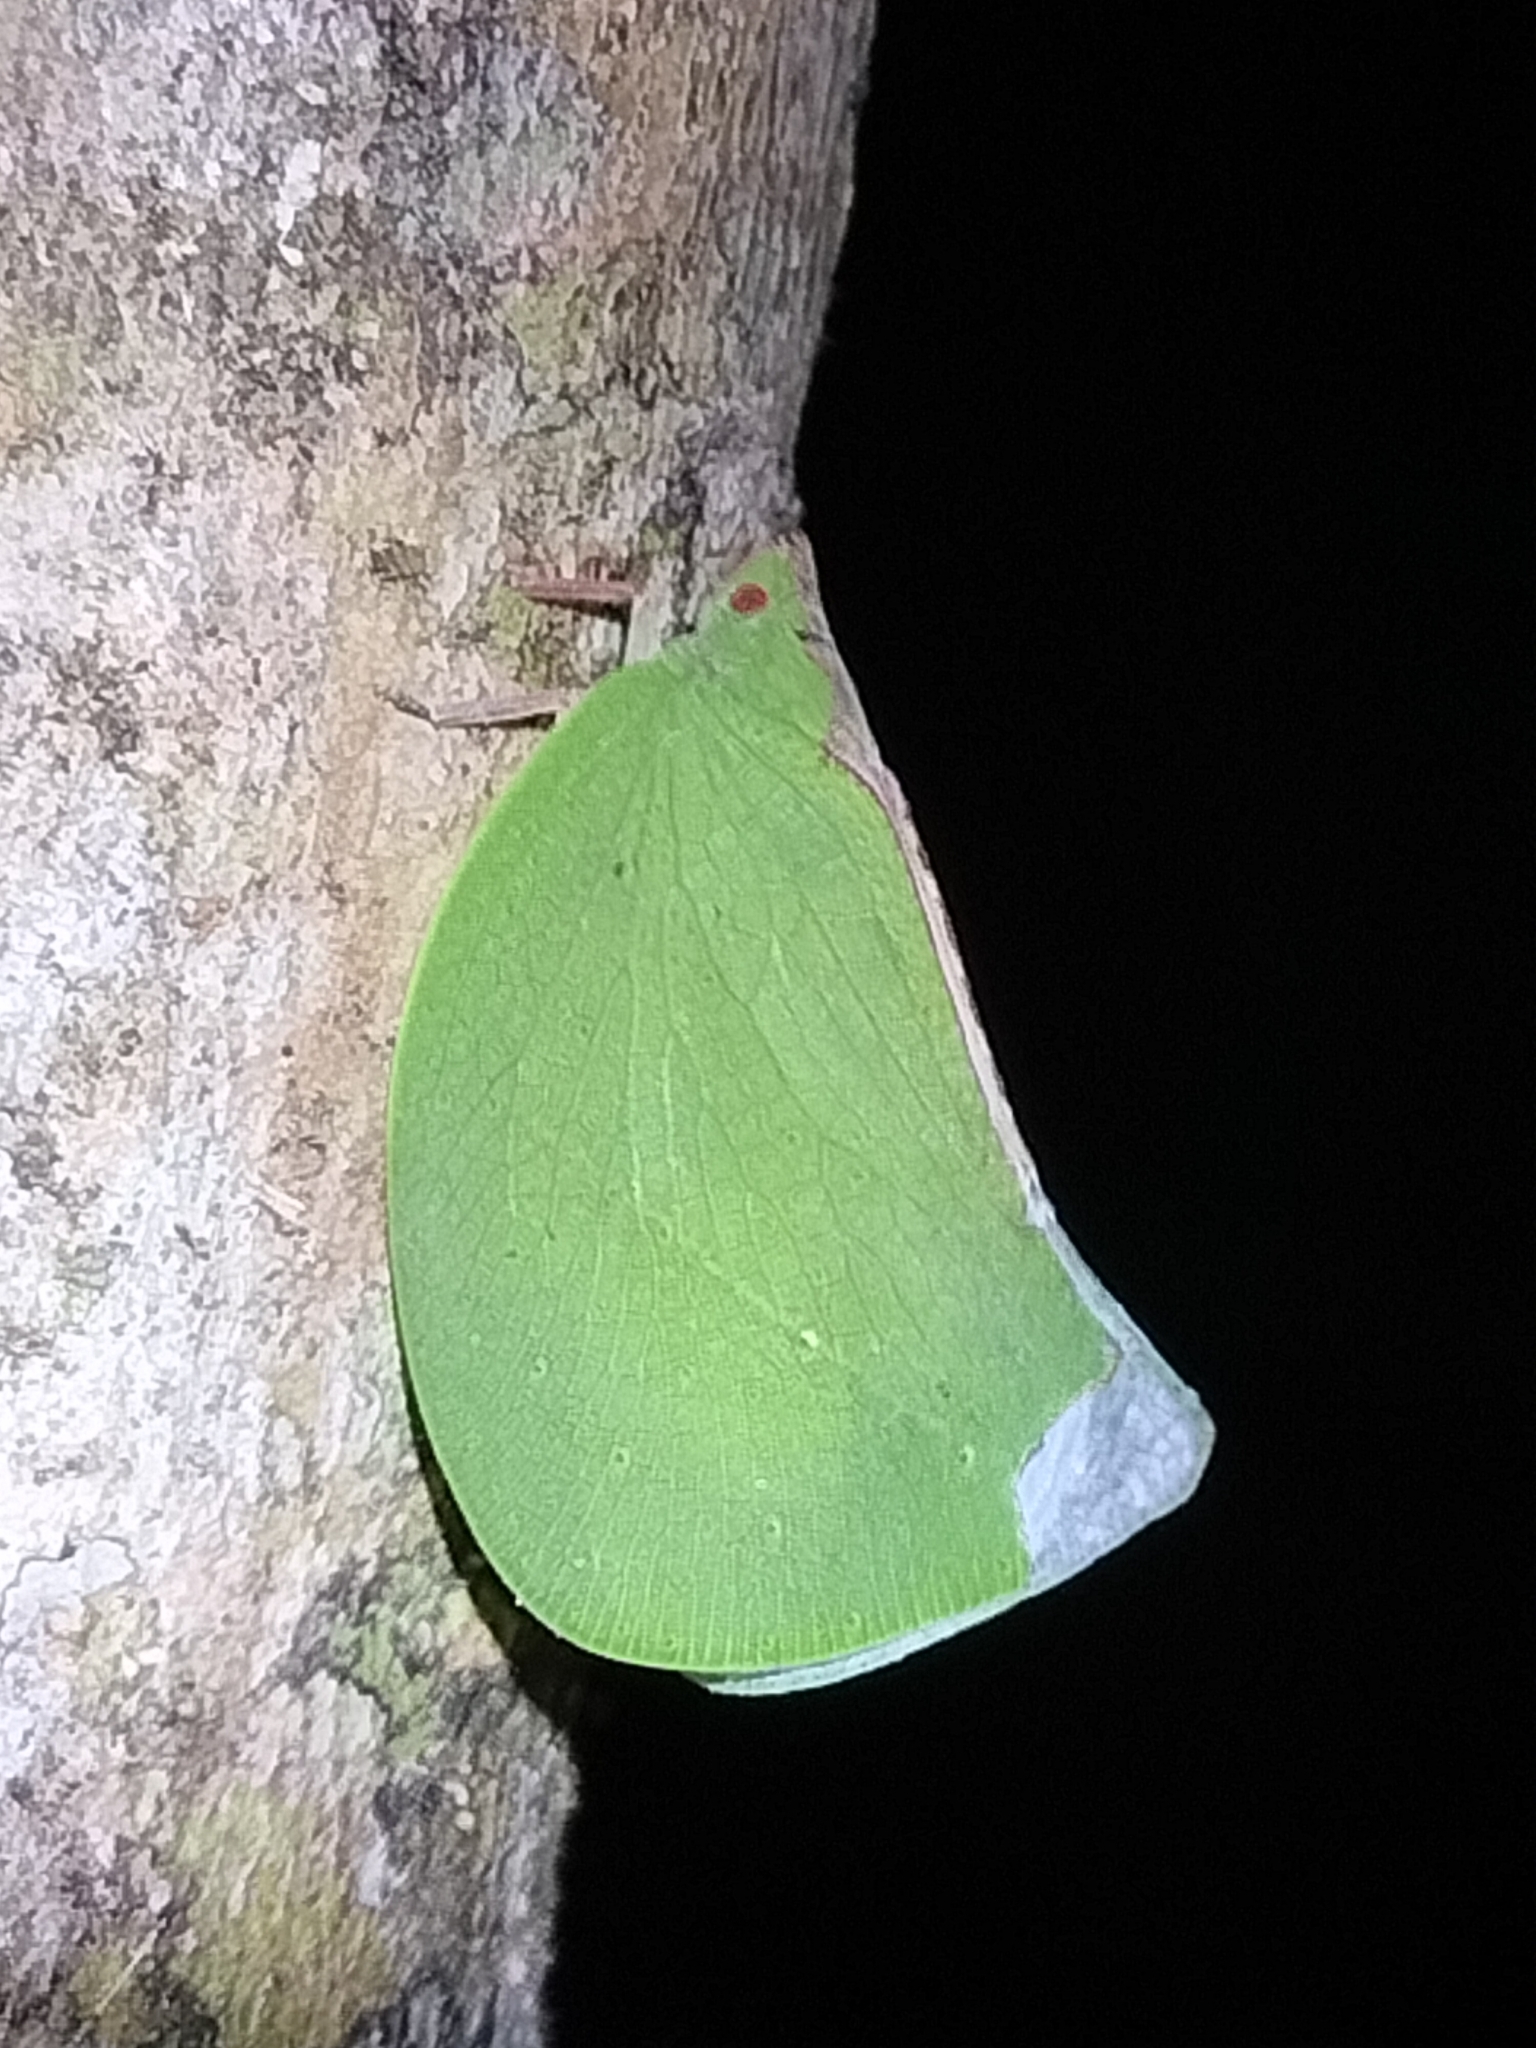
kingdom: Animalia
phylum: Arthropoda
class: Insecta
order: Hemiptera
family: Flatidae
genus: Geraldtonia
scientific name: Geraldtonia protea
